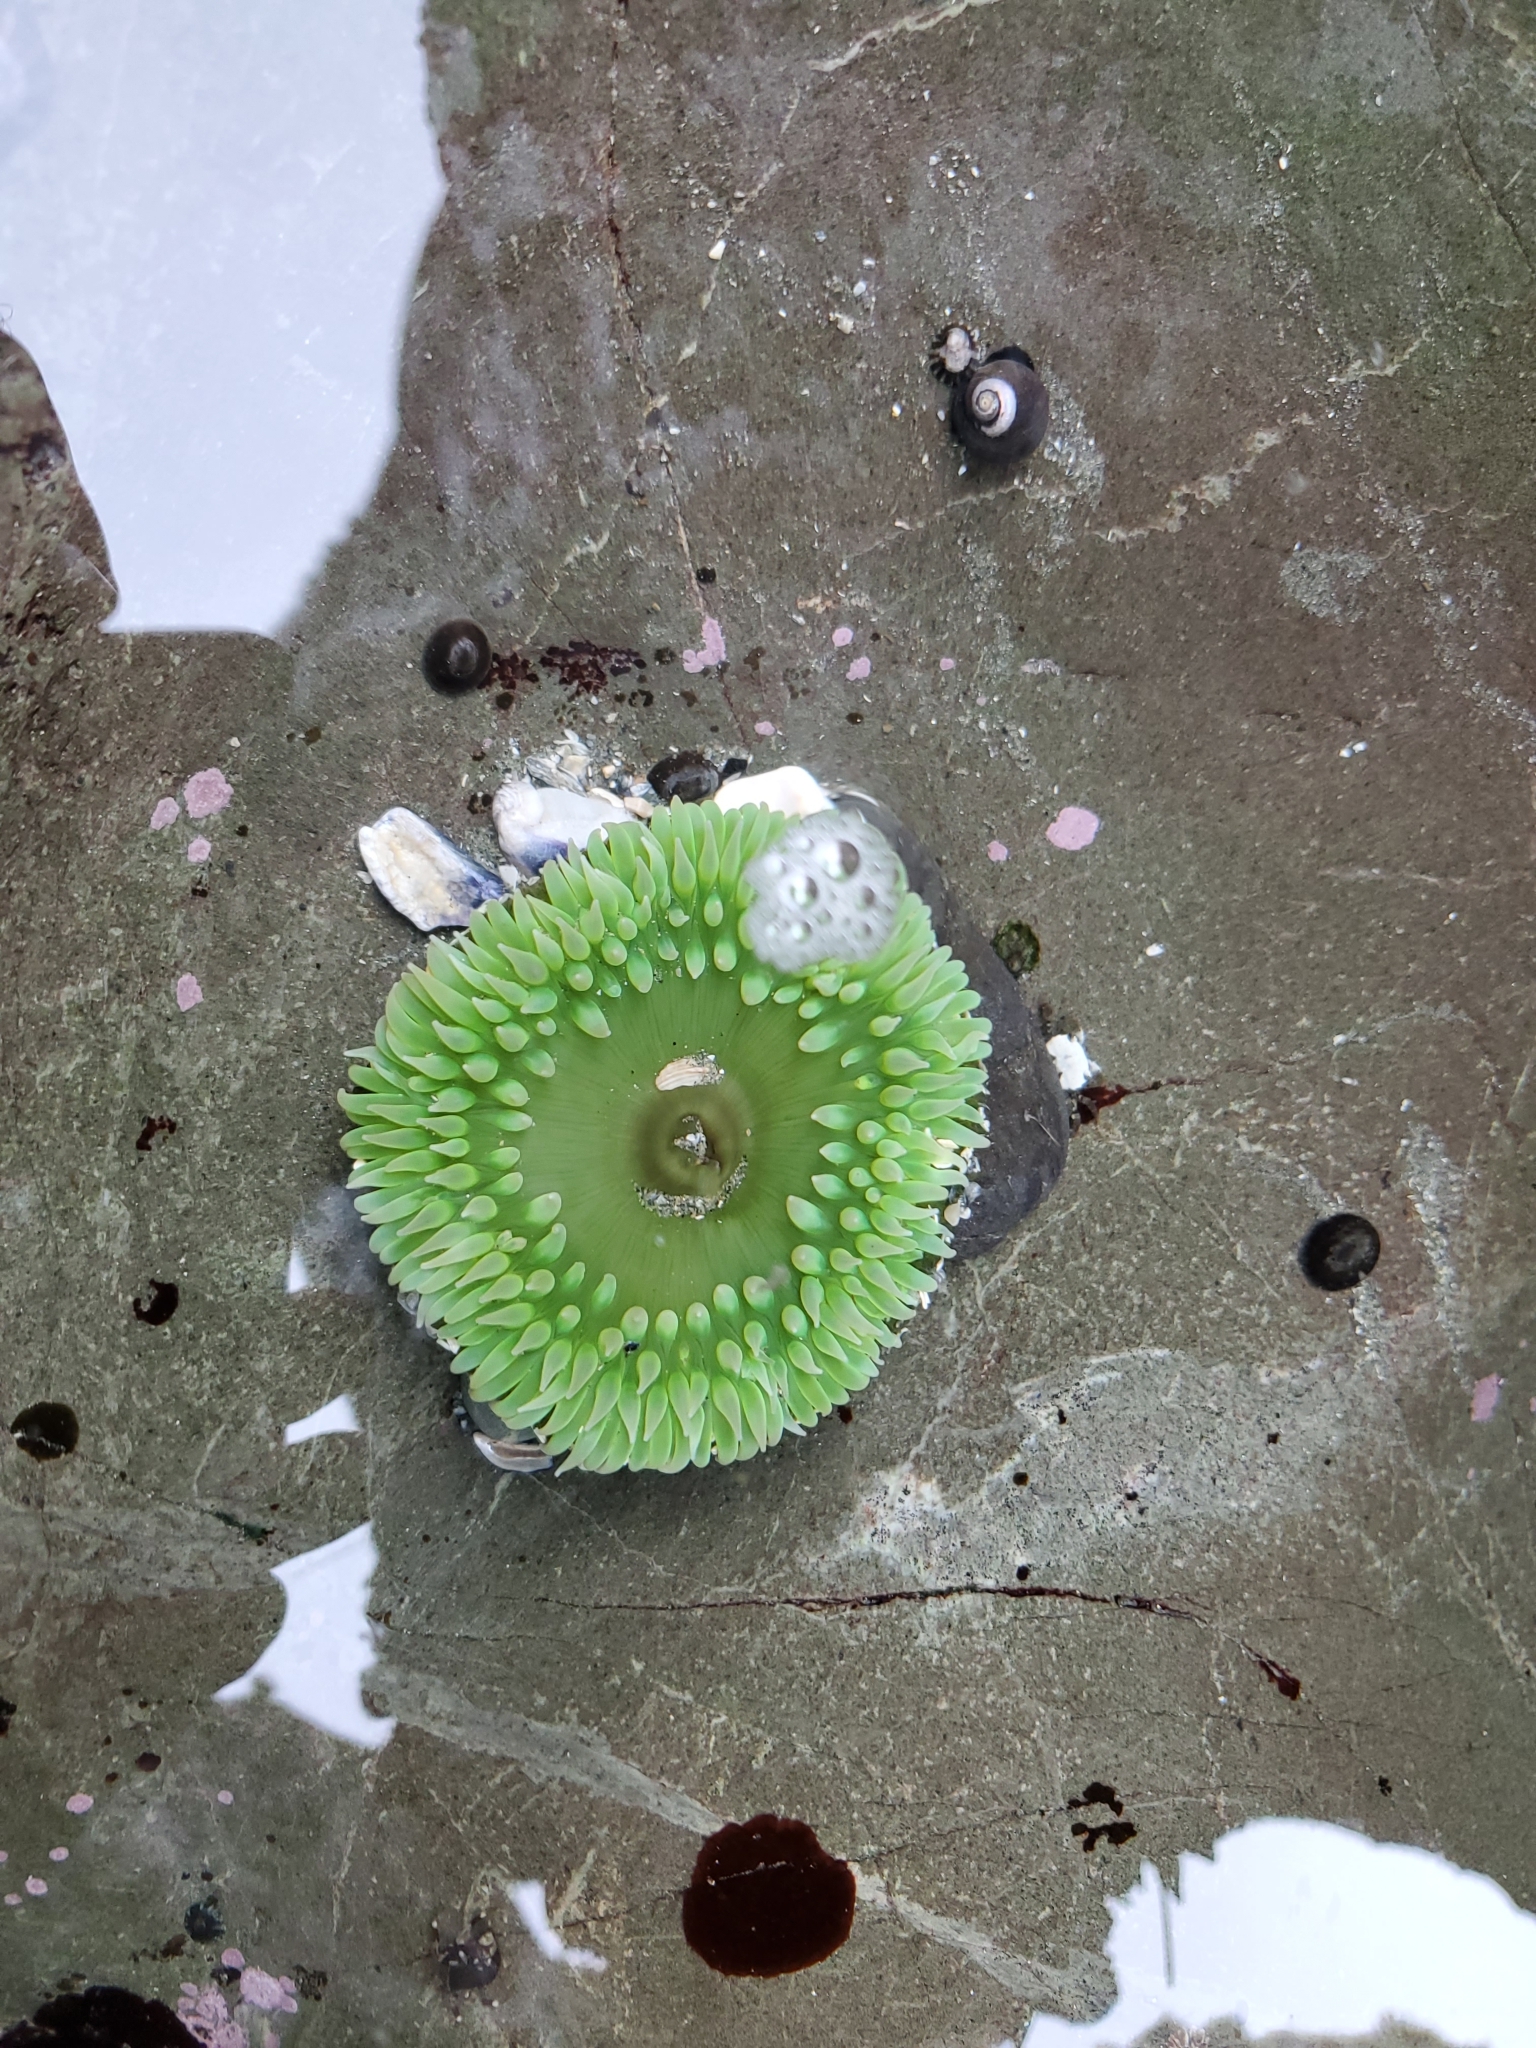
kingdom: Animalia
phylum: Cnidaria
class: Anthozoa
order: Actiniaria
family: Actiniidae
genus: Anthopleura
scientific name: Anthopleura xanthogrammica
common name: Giant green anemone
